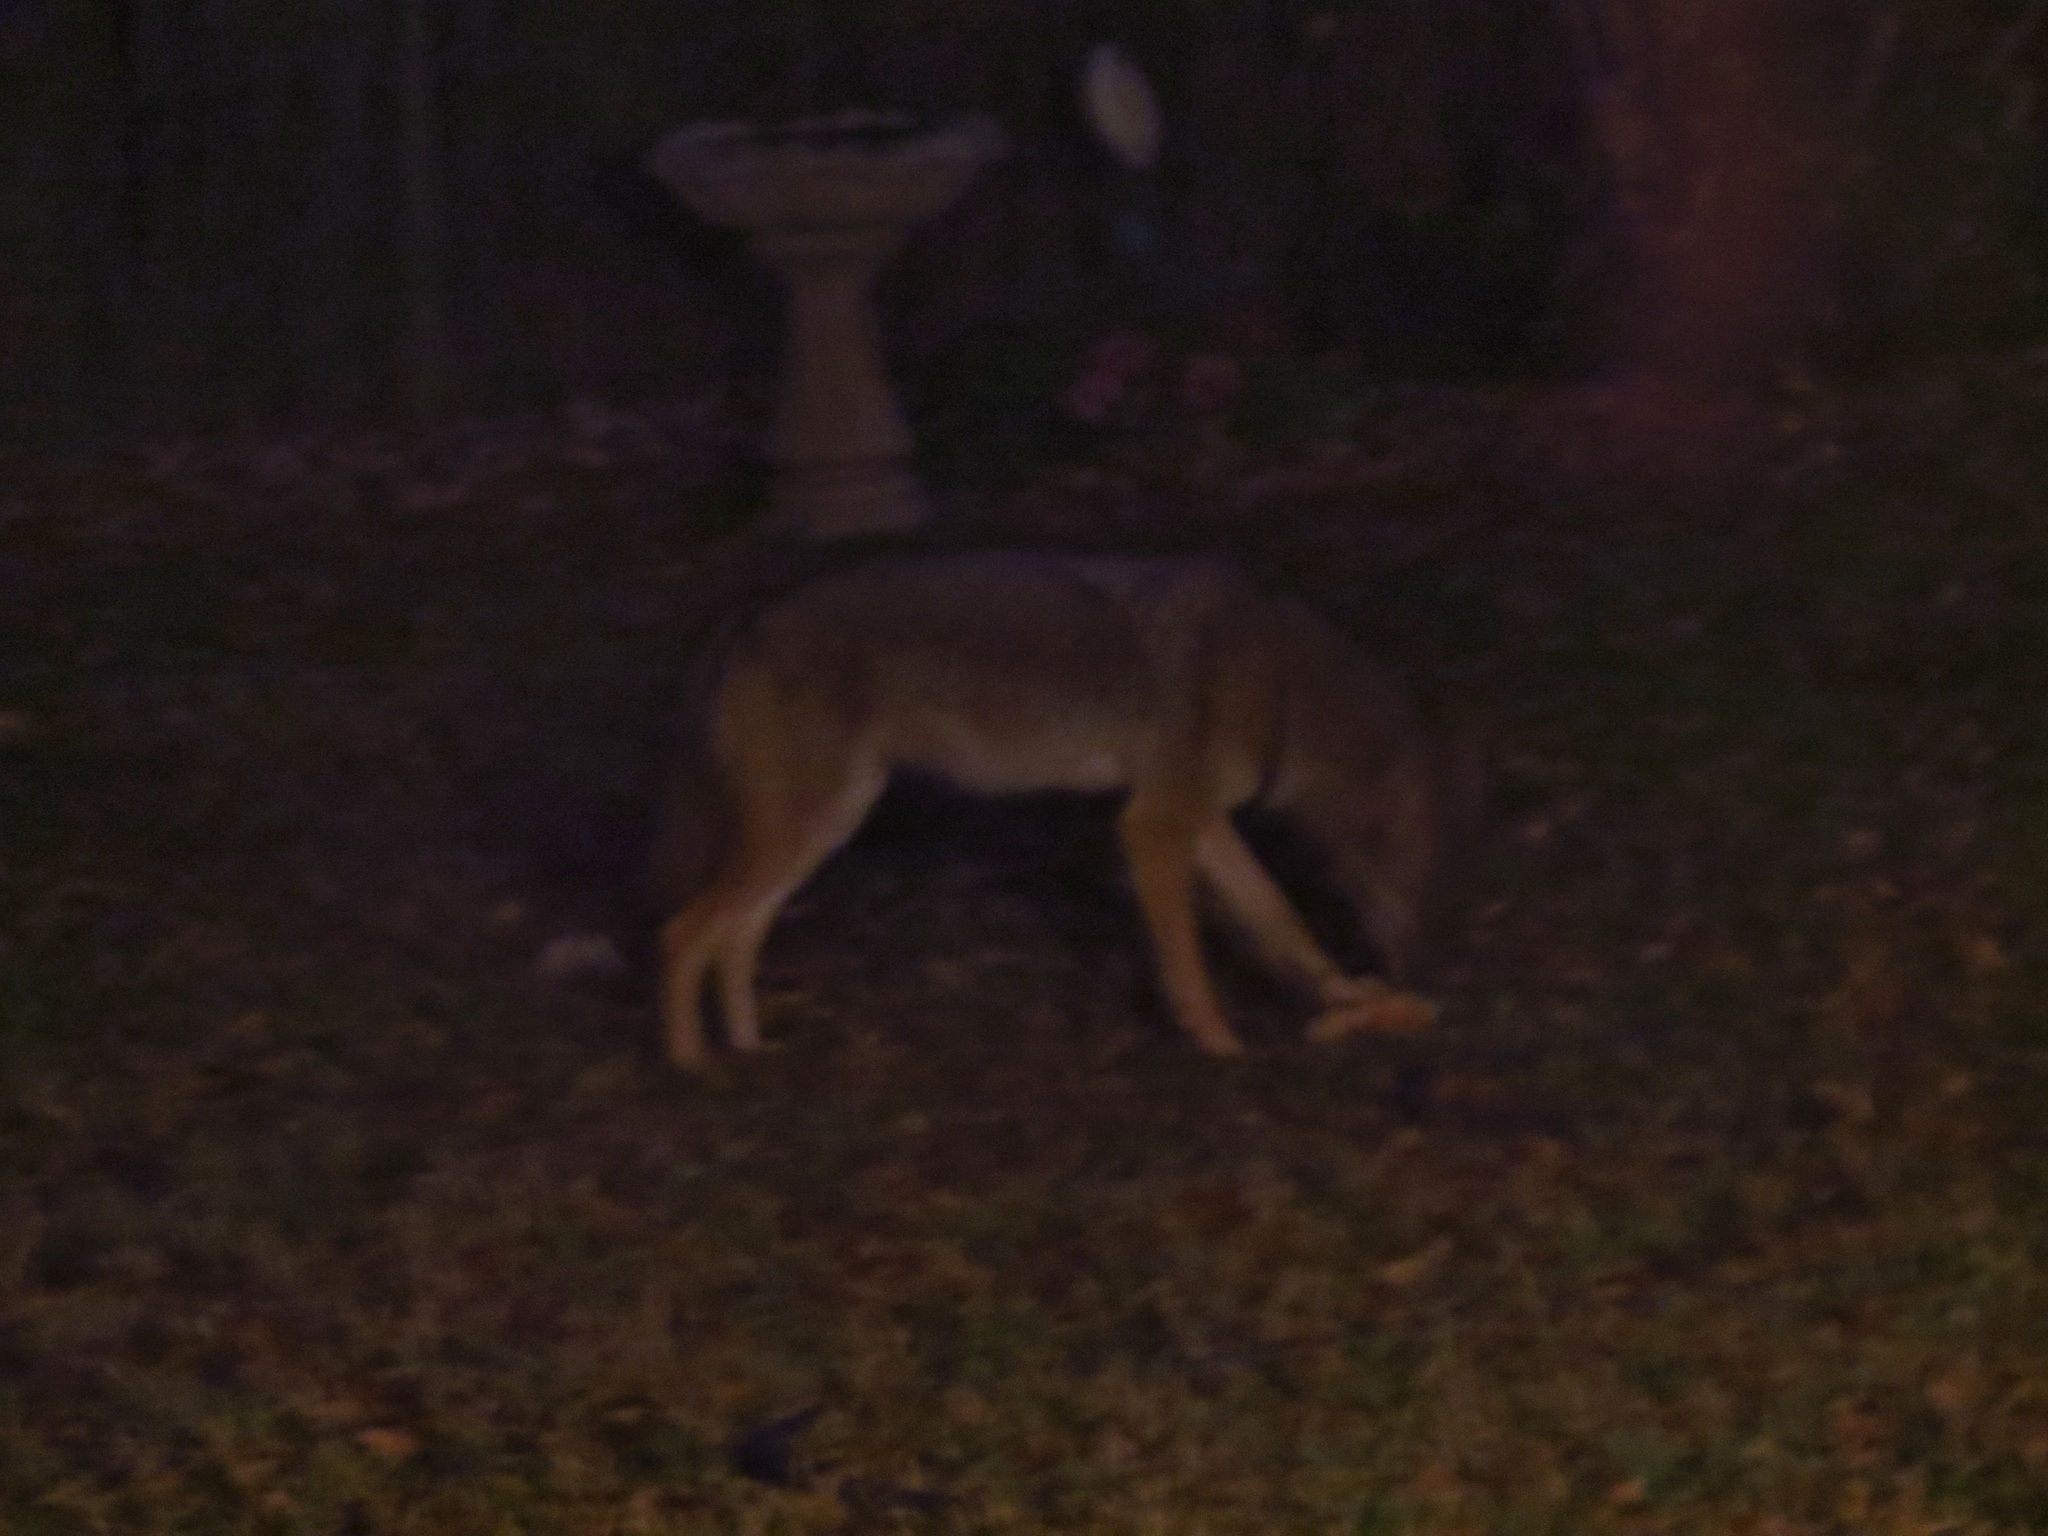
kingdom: Animalia
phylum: Chordata
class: Mammalia
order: Carnivora
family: Canidae
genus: Canis
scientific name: Canis latrans
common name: Coyote
